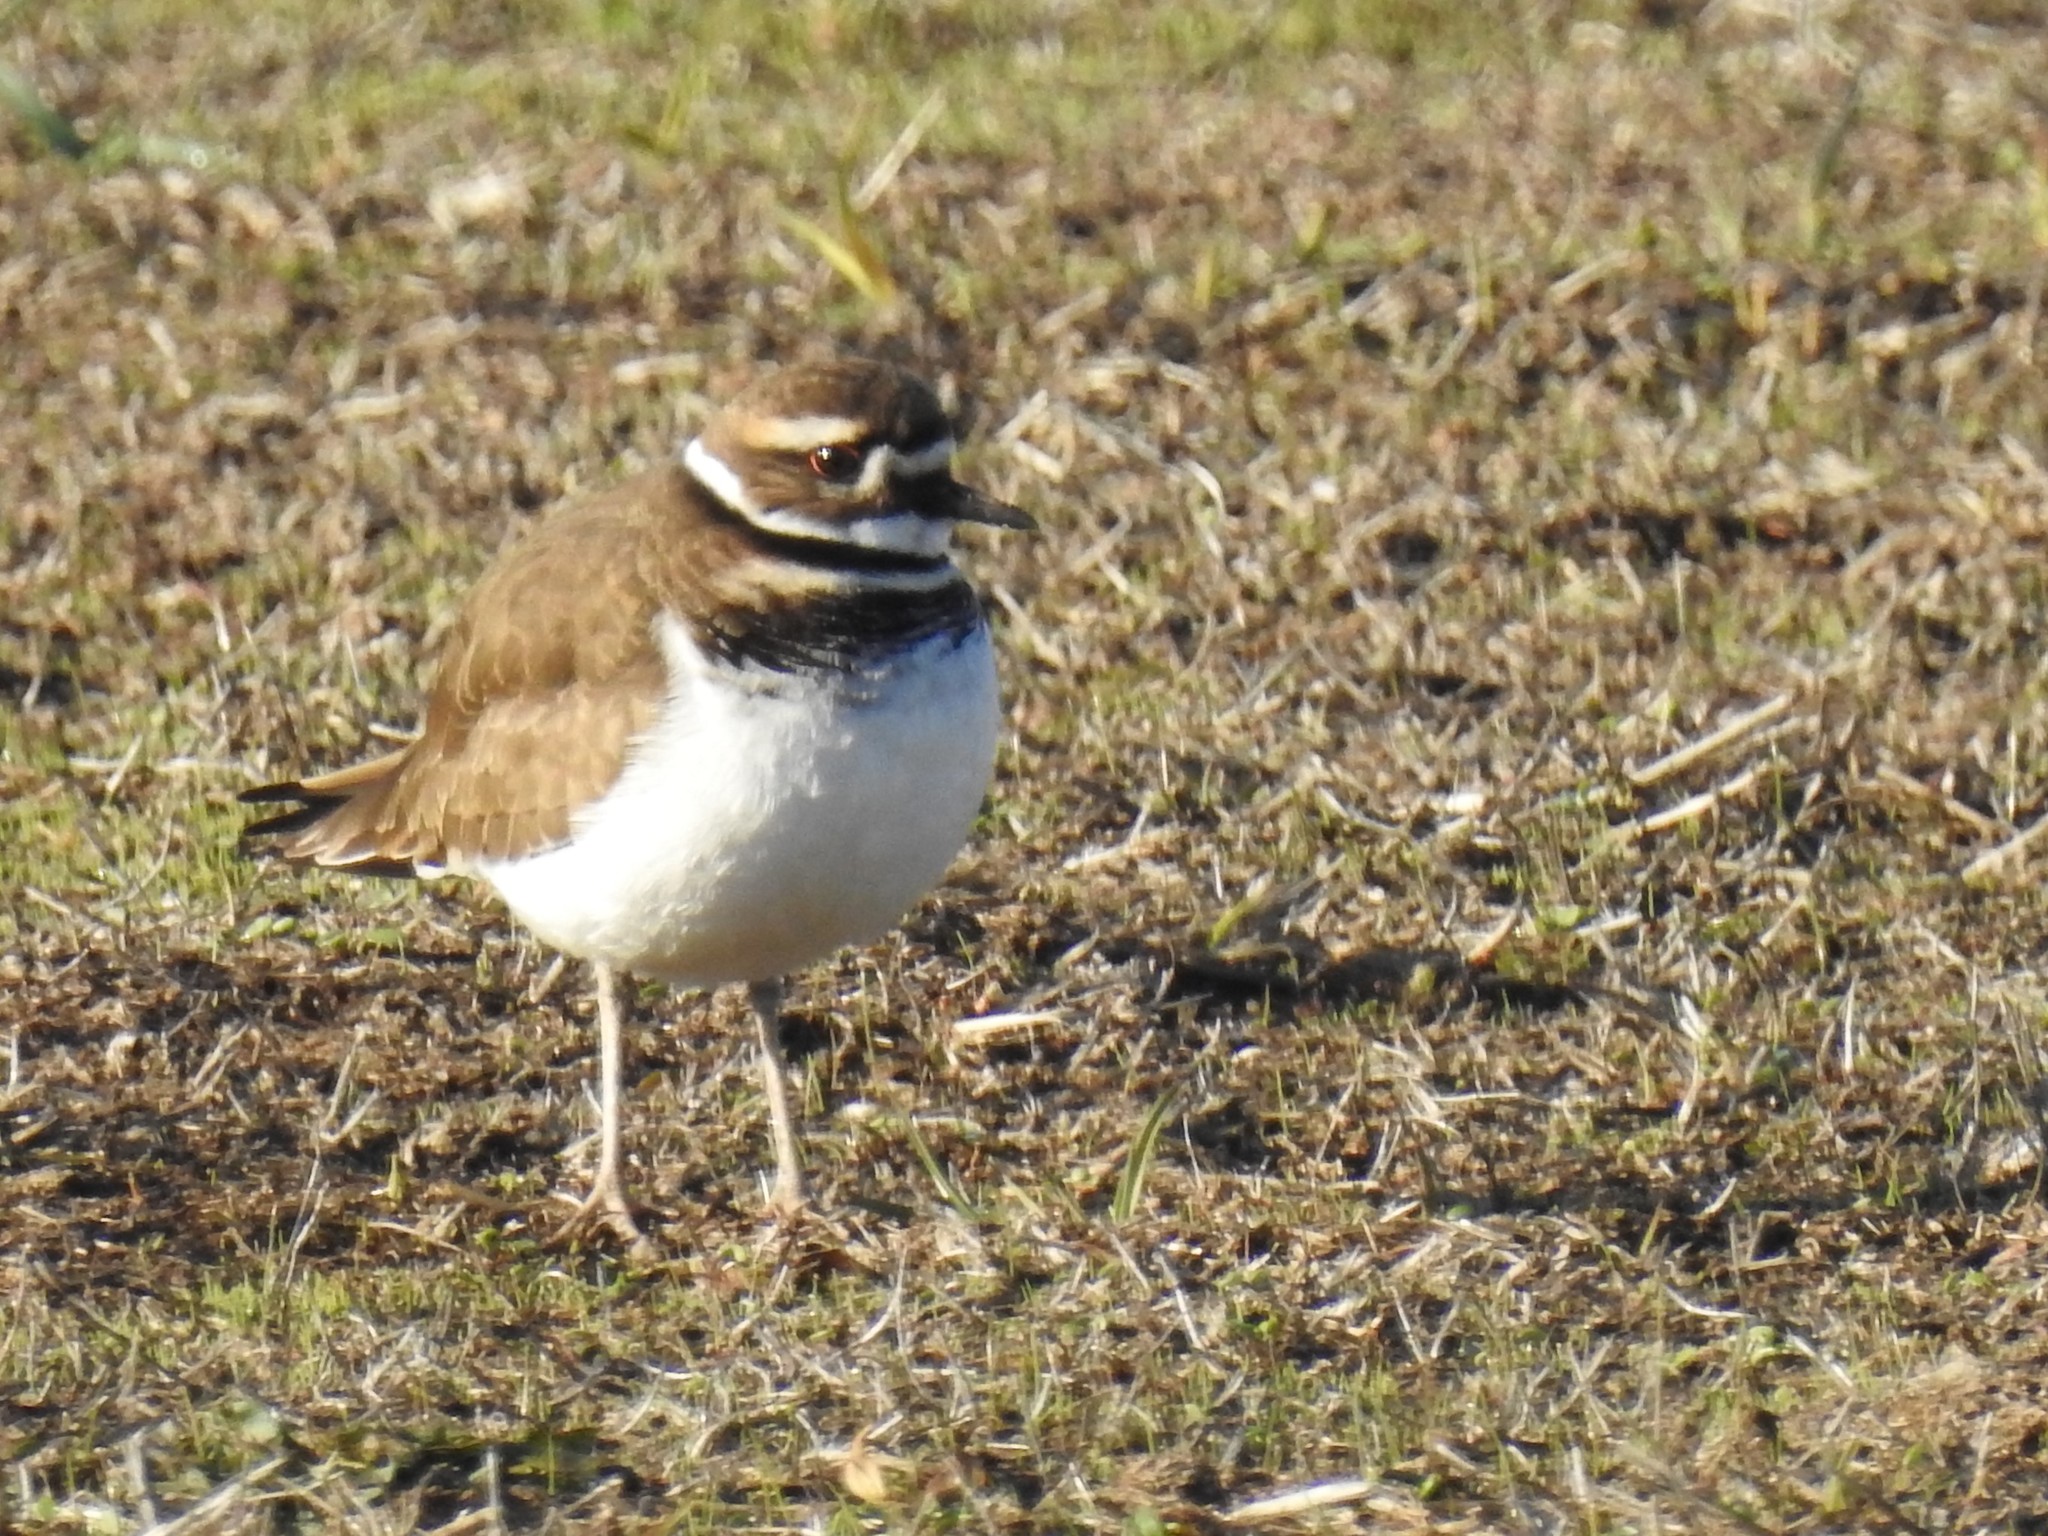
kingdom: Animalia
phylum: Chordata
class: Aves
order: Charadriiformes
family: Charadriidae
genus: Charadrius
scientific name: Charadrius vociferus
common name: Killdeer
